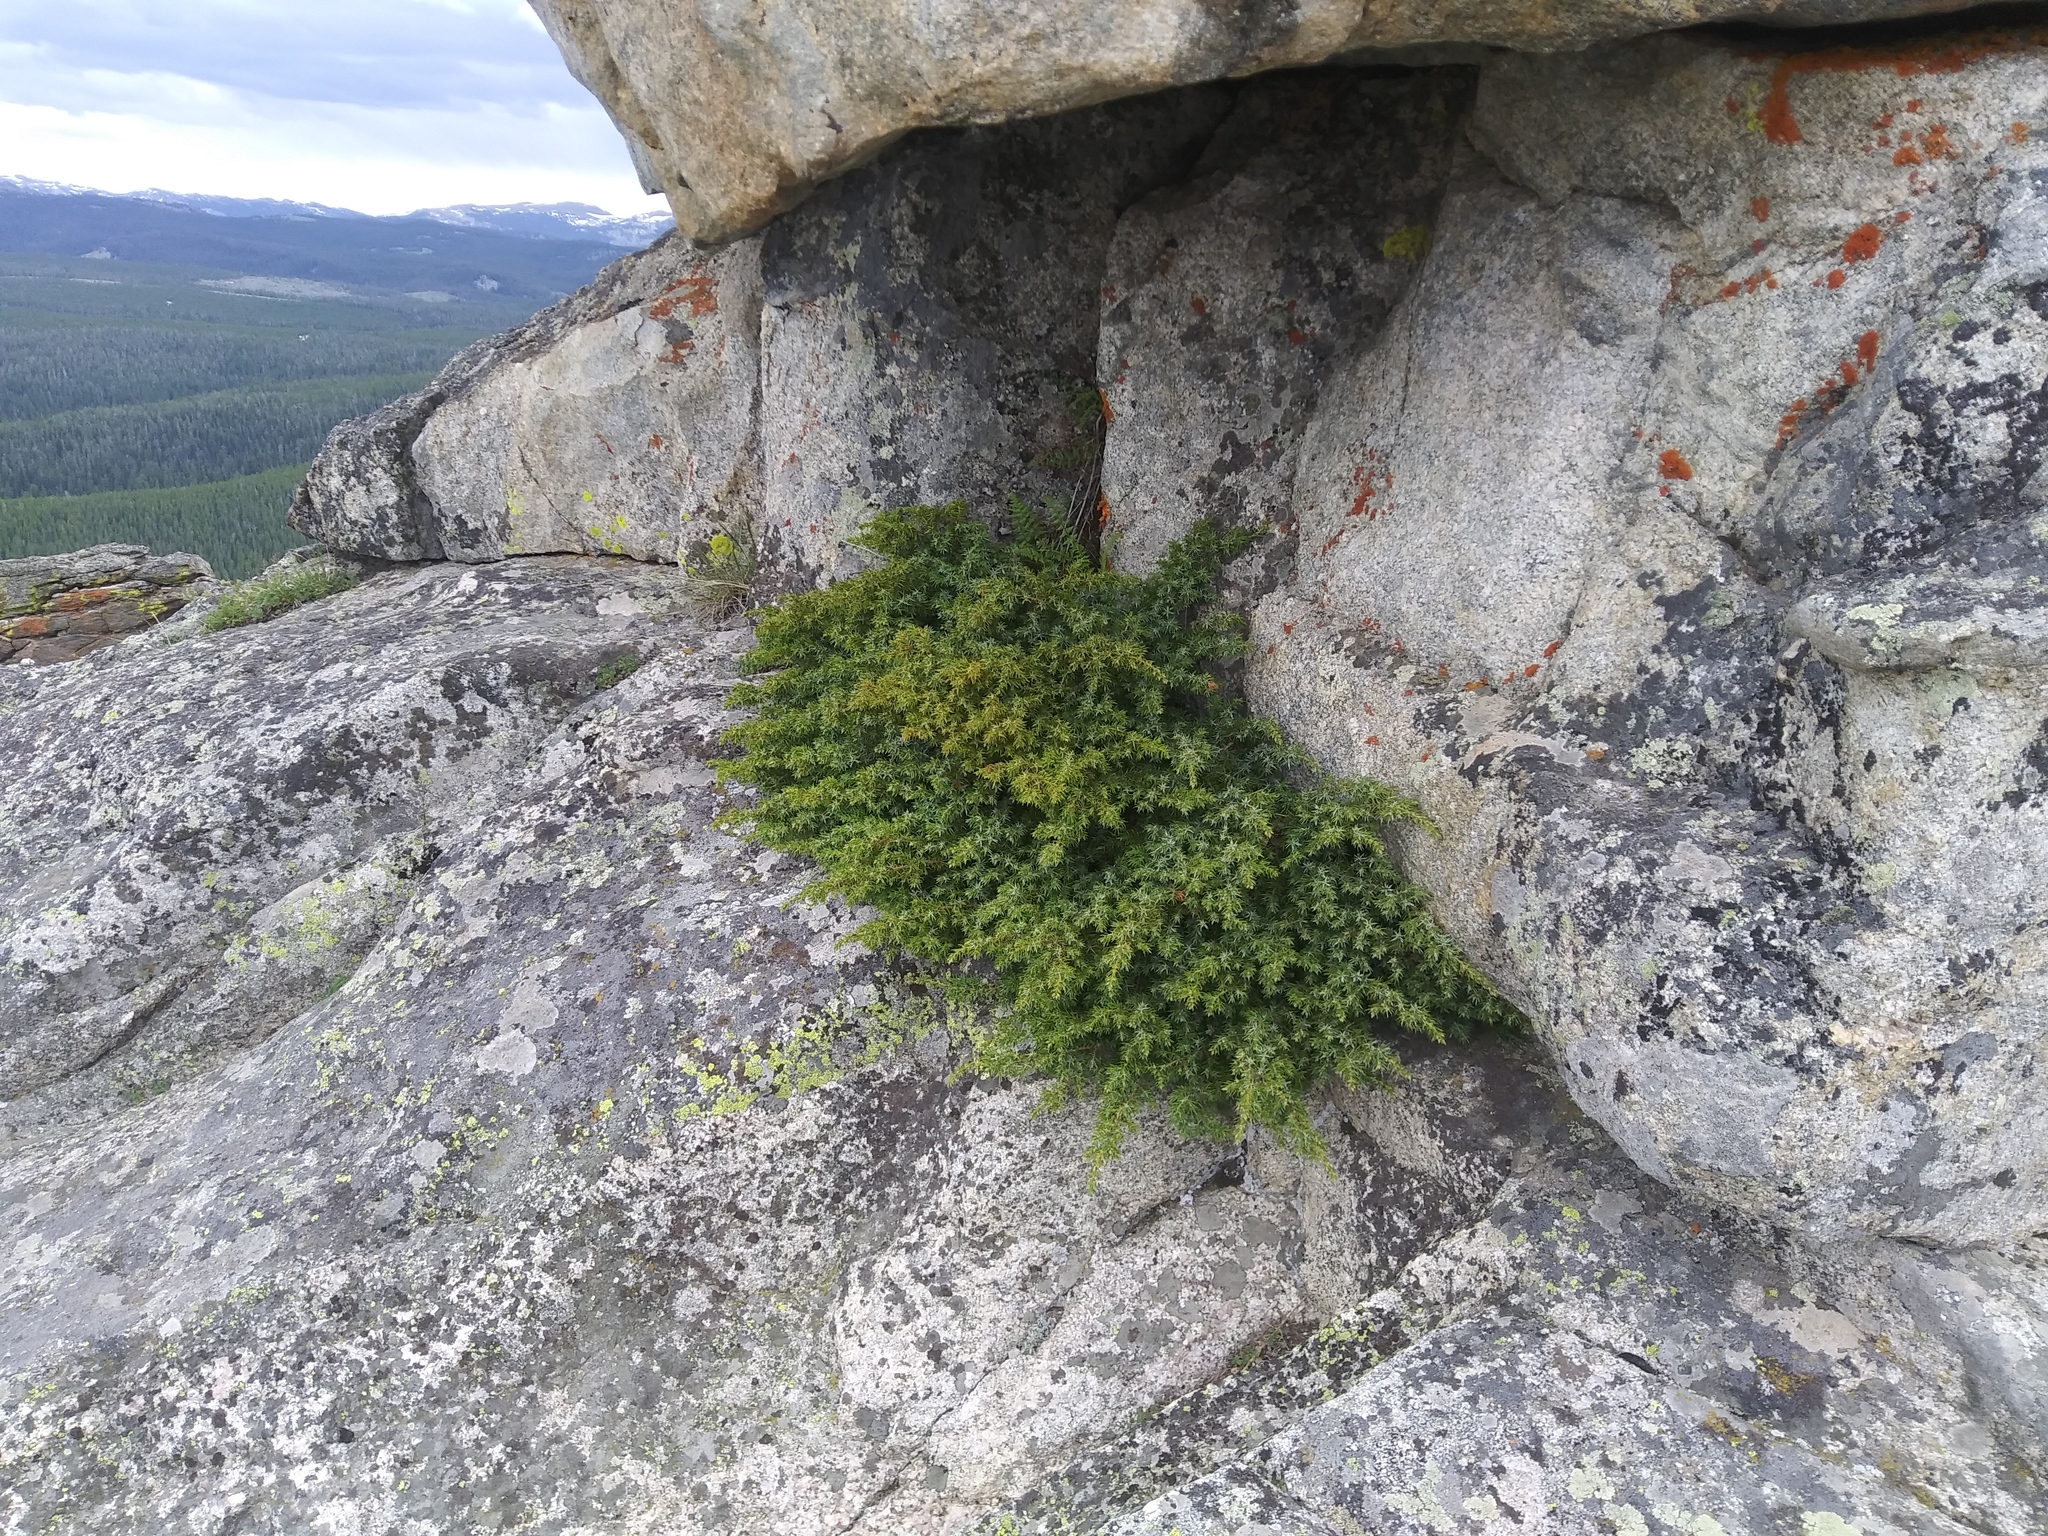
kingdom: Plantae
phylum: Tracheophyta
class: Pinopsida
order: Pinales
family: Cupressaceae
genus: Juniperus
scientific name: Juniperus communis
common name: Common juniper
